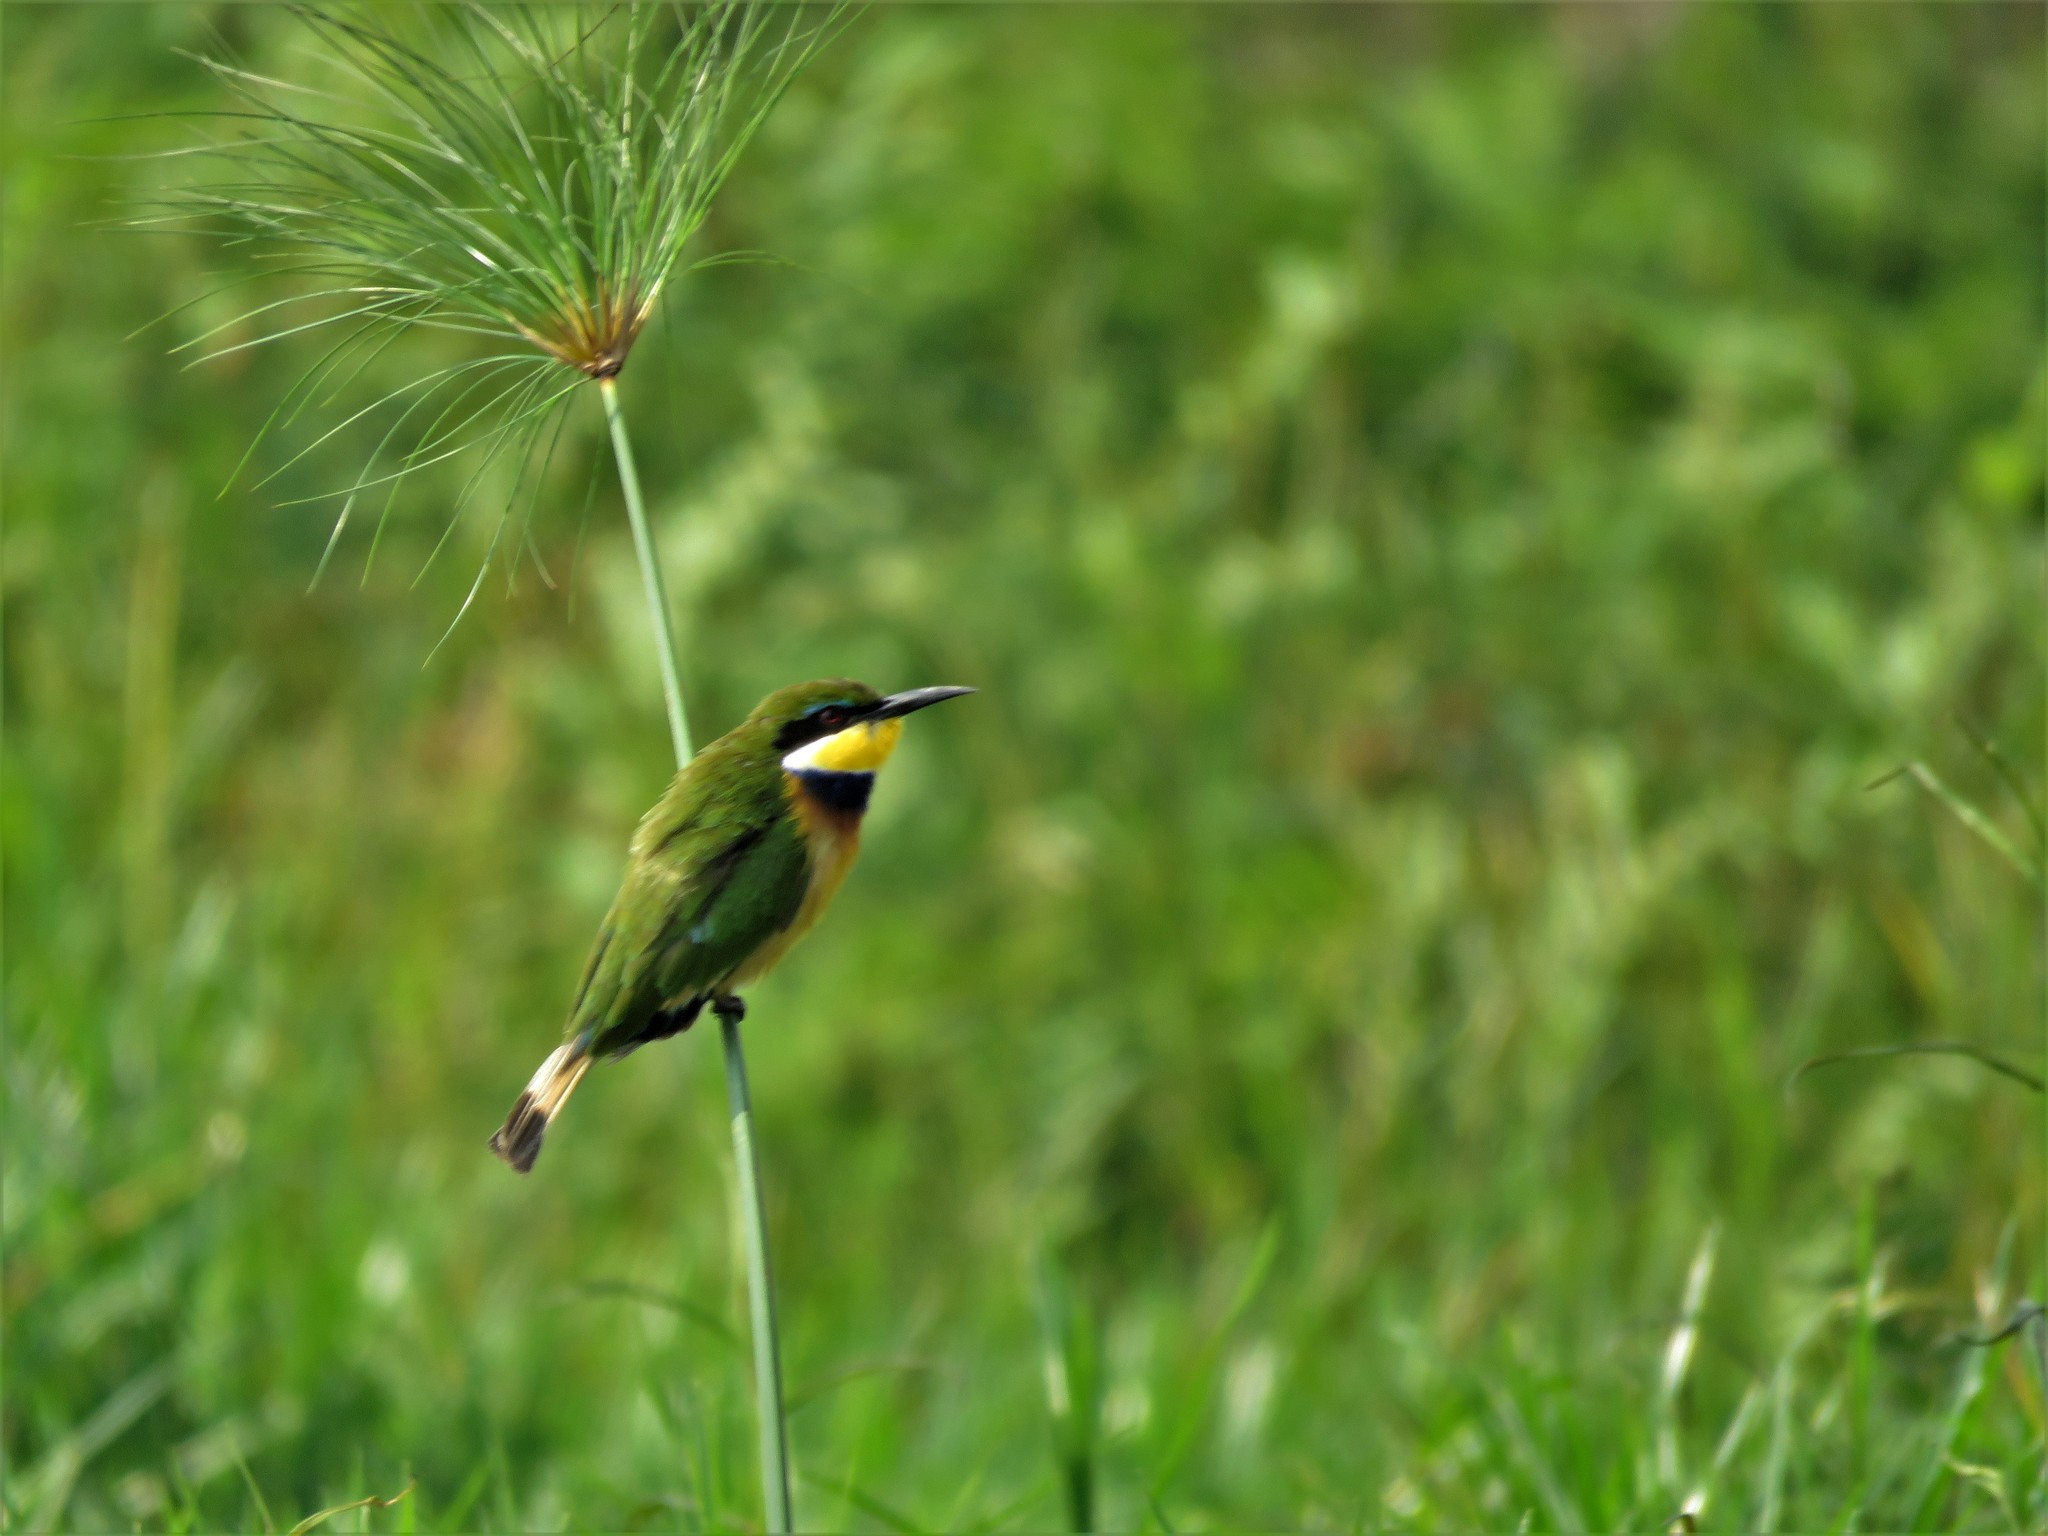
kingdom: Animalia
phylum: Chordata
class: Aves
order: Coraciiformes
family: Meropidae
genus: Merops
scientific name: Merops variegatus
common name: Blue-breasted bee-eater
